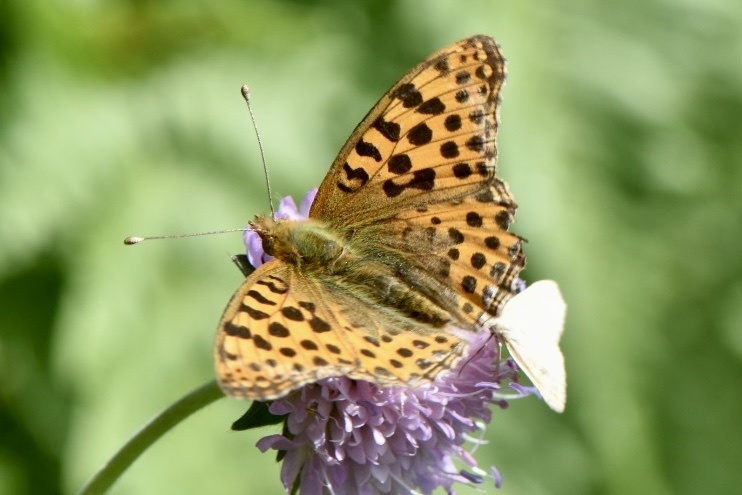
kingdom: Animalia
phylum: Arthropoda
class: Insecta
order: Lepidoptera
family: Nymphalidae
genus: Issoria
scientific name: Issoria lathonia
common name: Queen of spain fritillary
